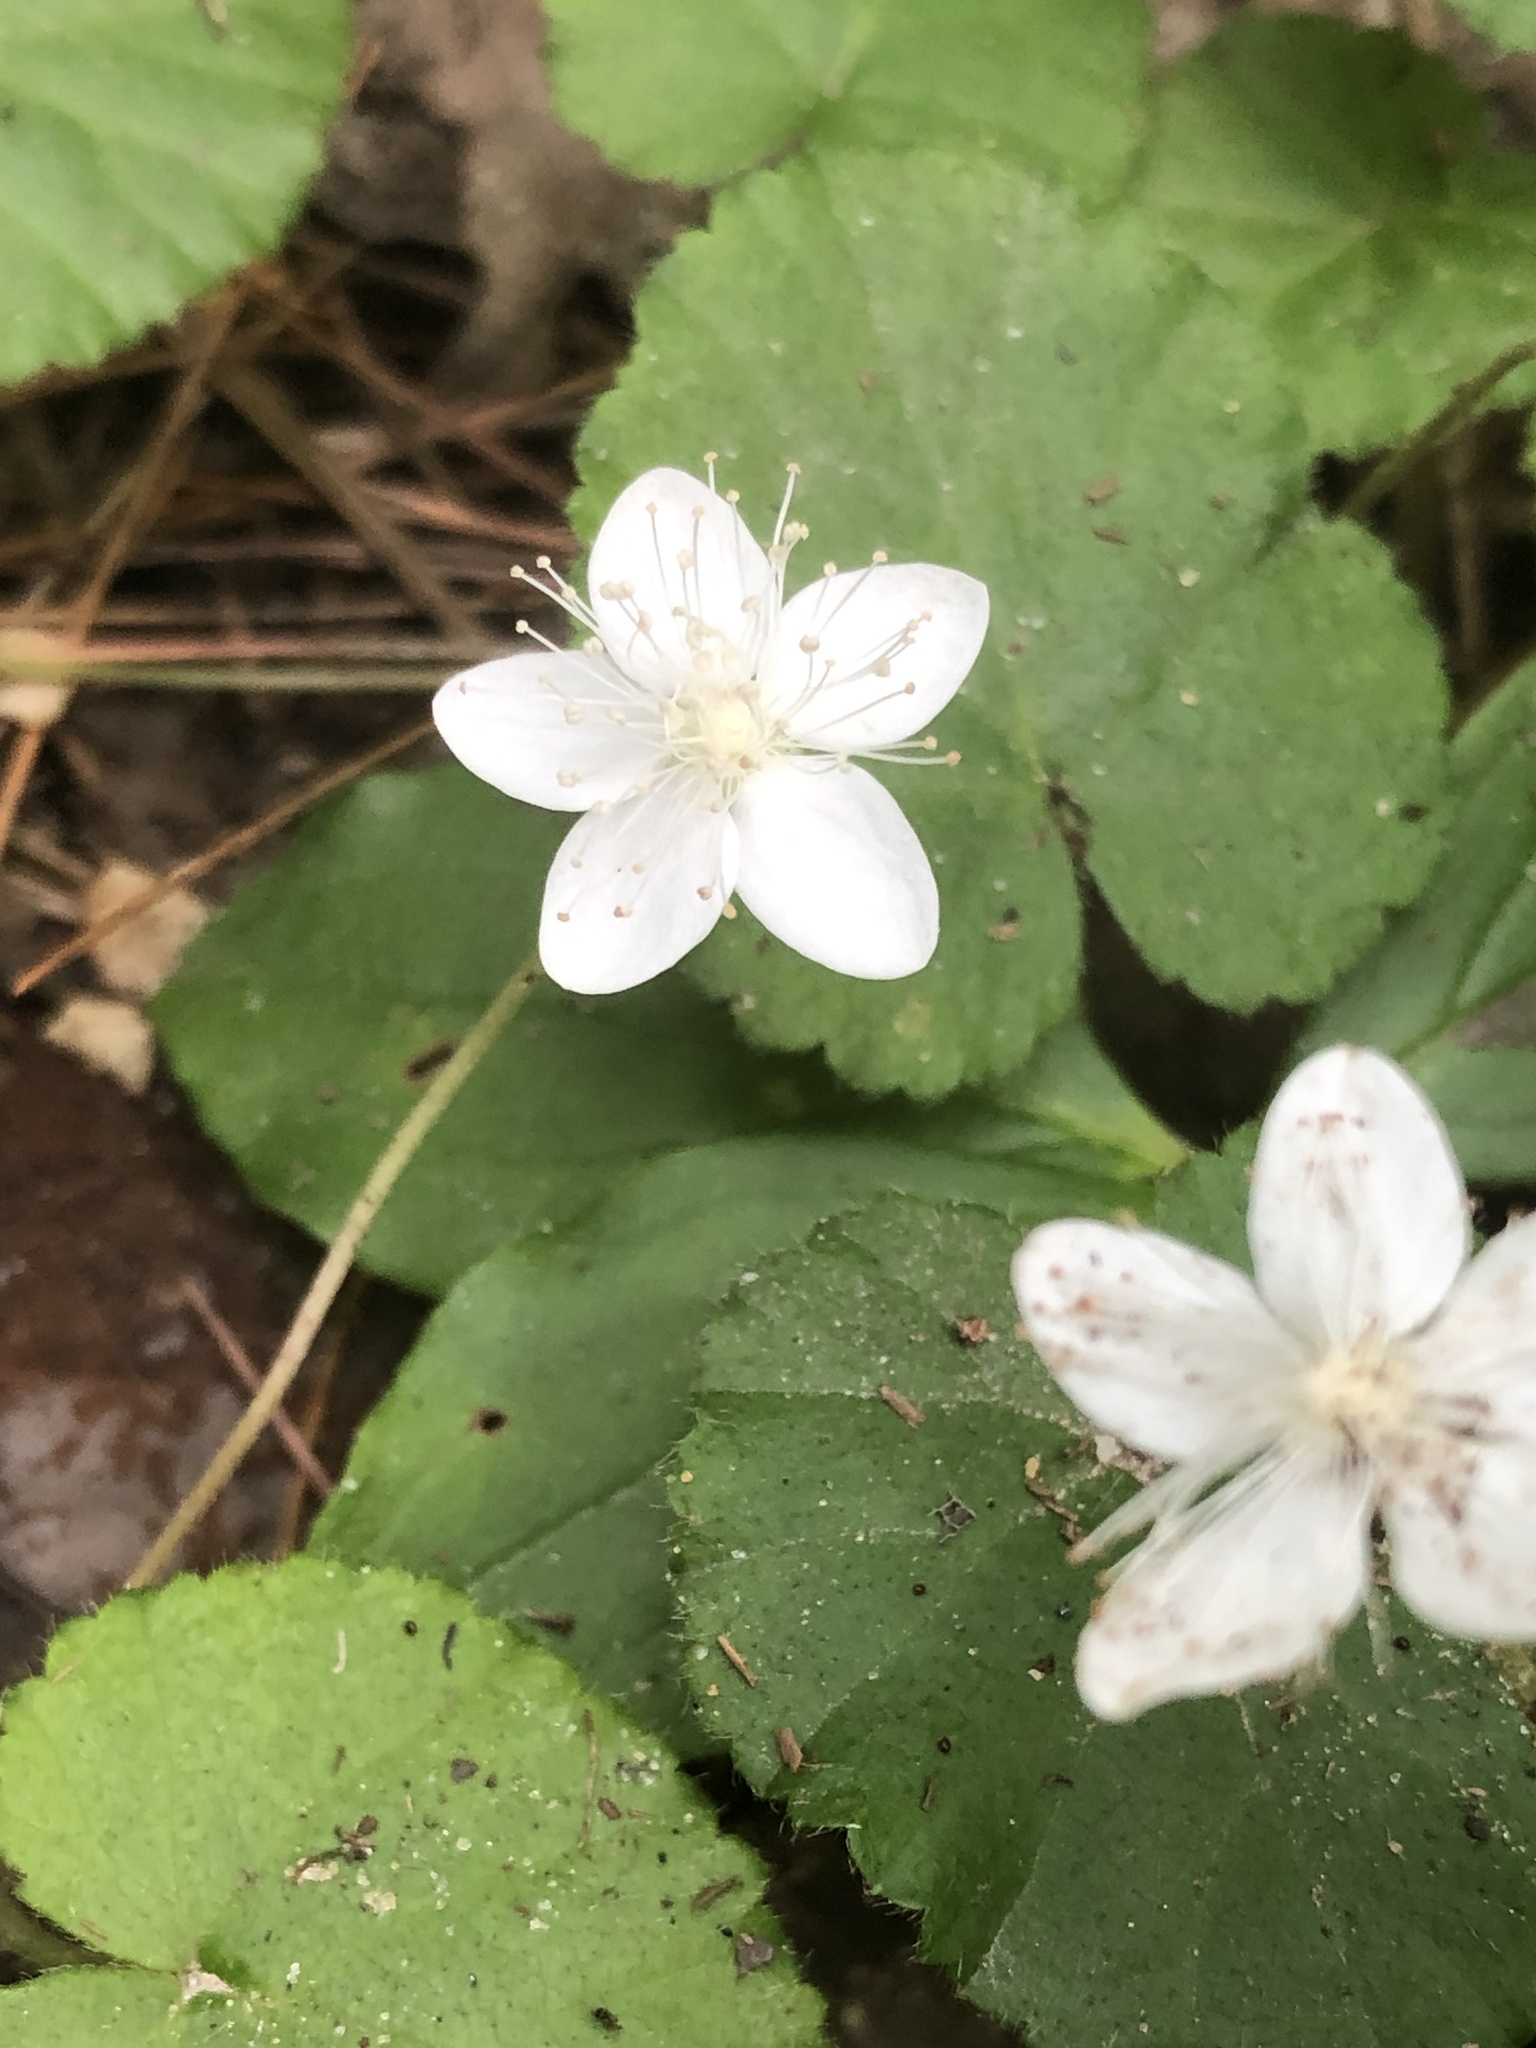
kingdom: Plantae
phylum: Tracheophyta
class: Magnoliopsida
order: Rosales
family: Rosaceae
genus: Dalibarda
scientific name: Dalibarda repens
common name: Dewdrop
